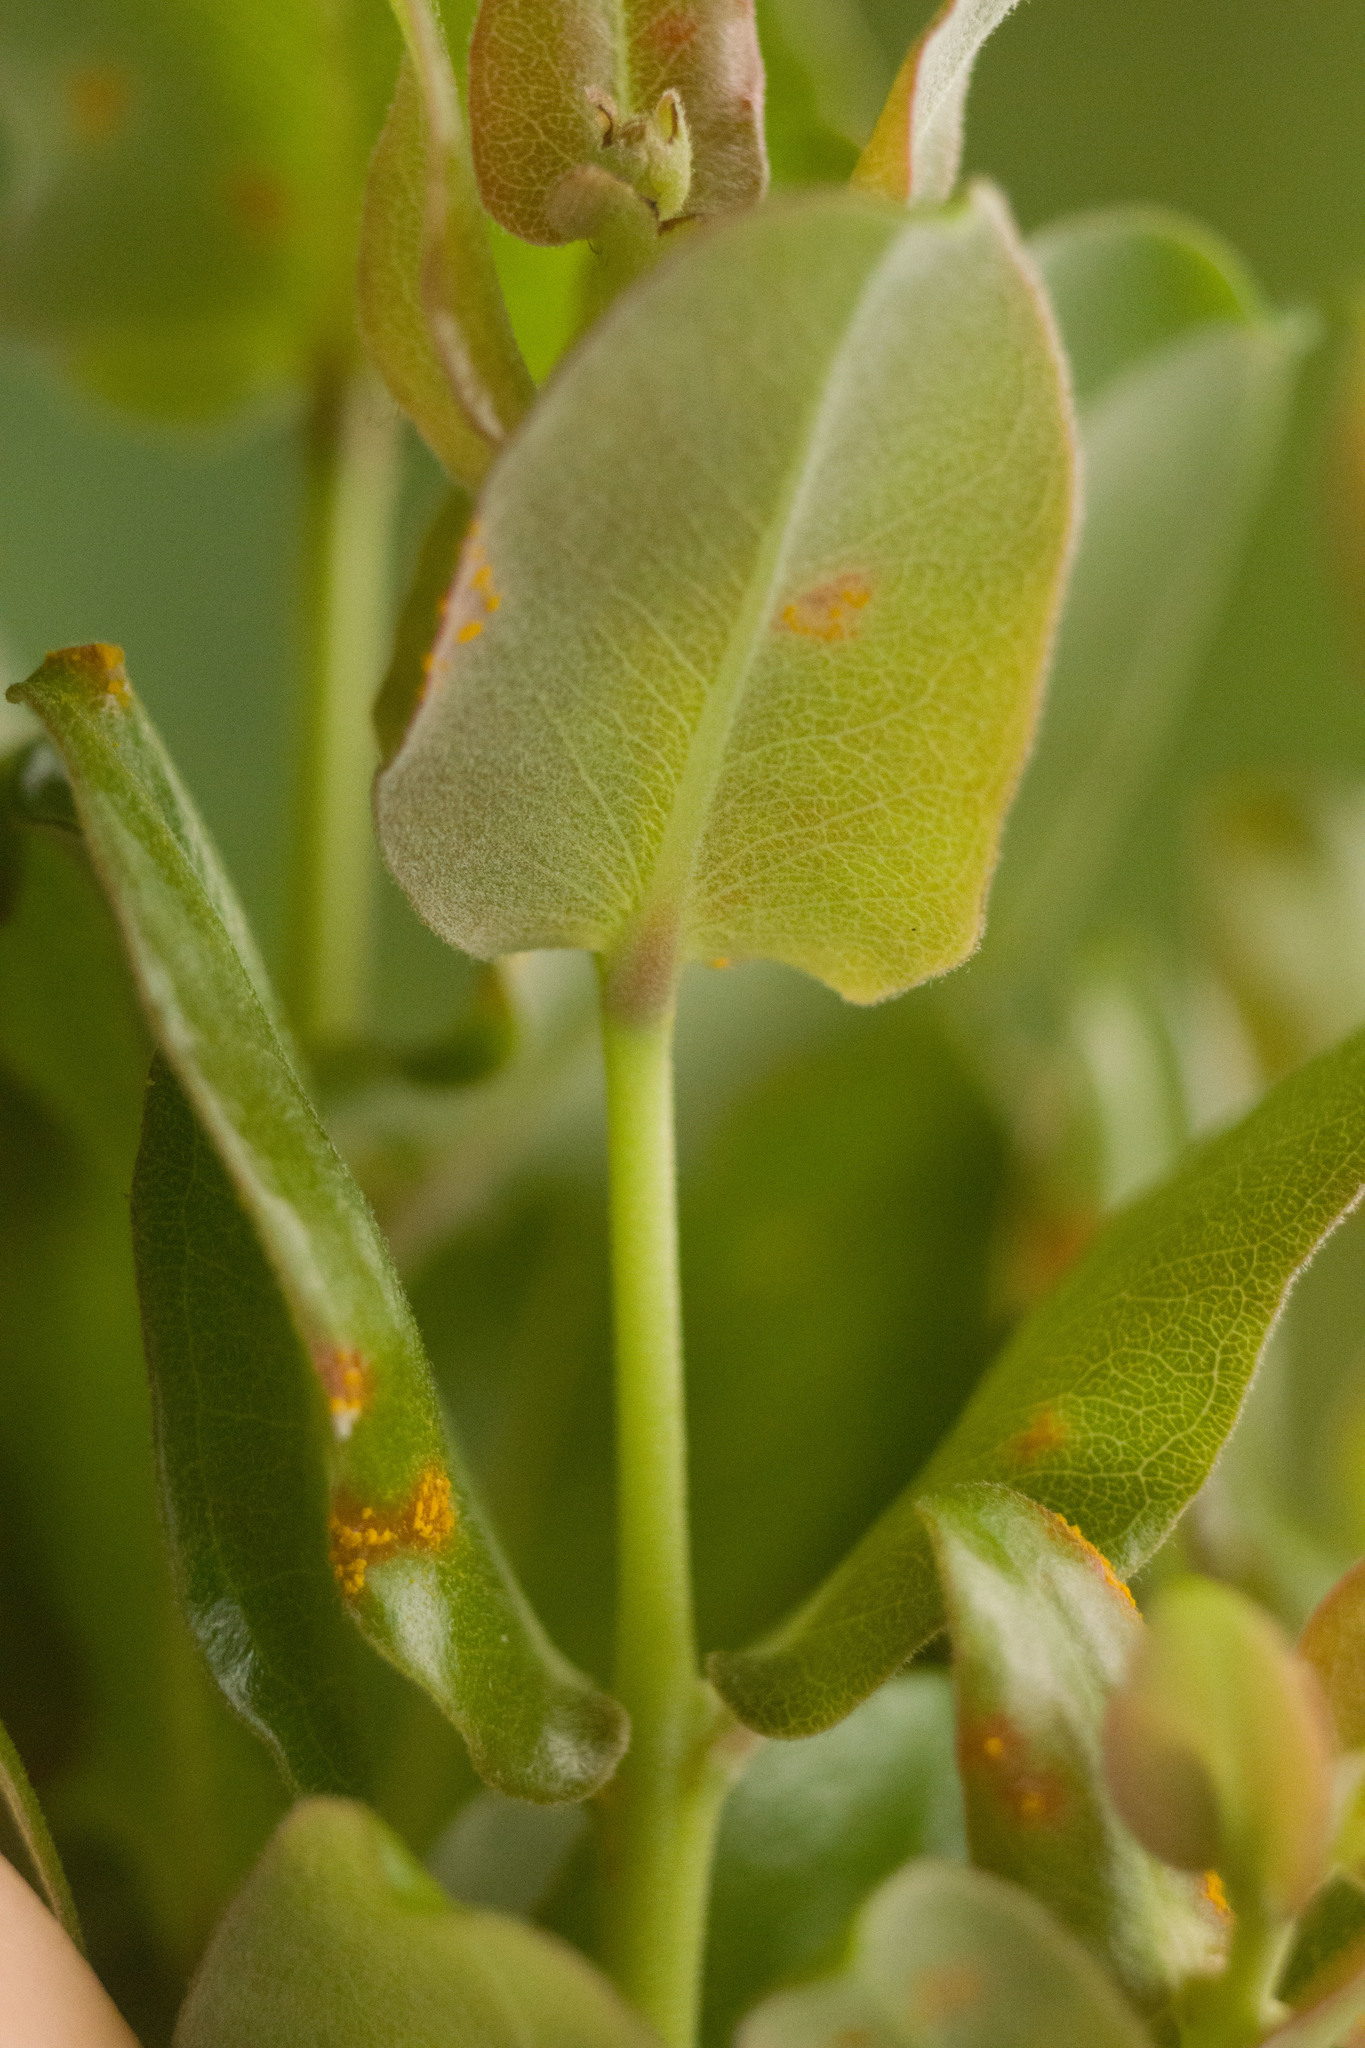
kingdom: Fungi
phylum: Basidiomycota
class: Pucciniomycetes
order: Pucciniales
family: Sphaerophragmiaceae
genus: Austropuccinia
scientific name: Austropuccinia psidii
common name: Myrtle rust
